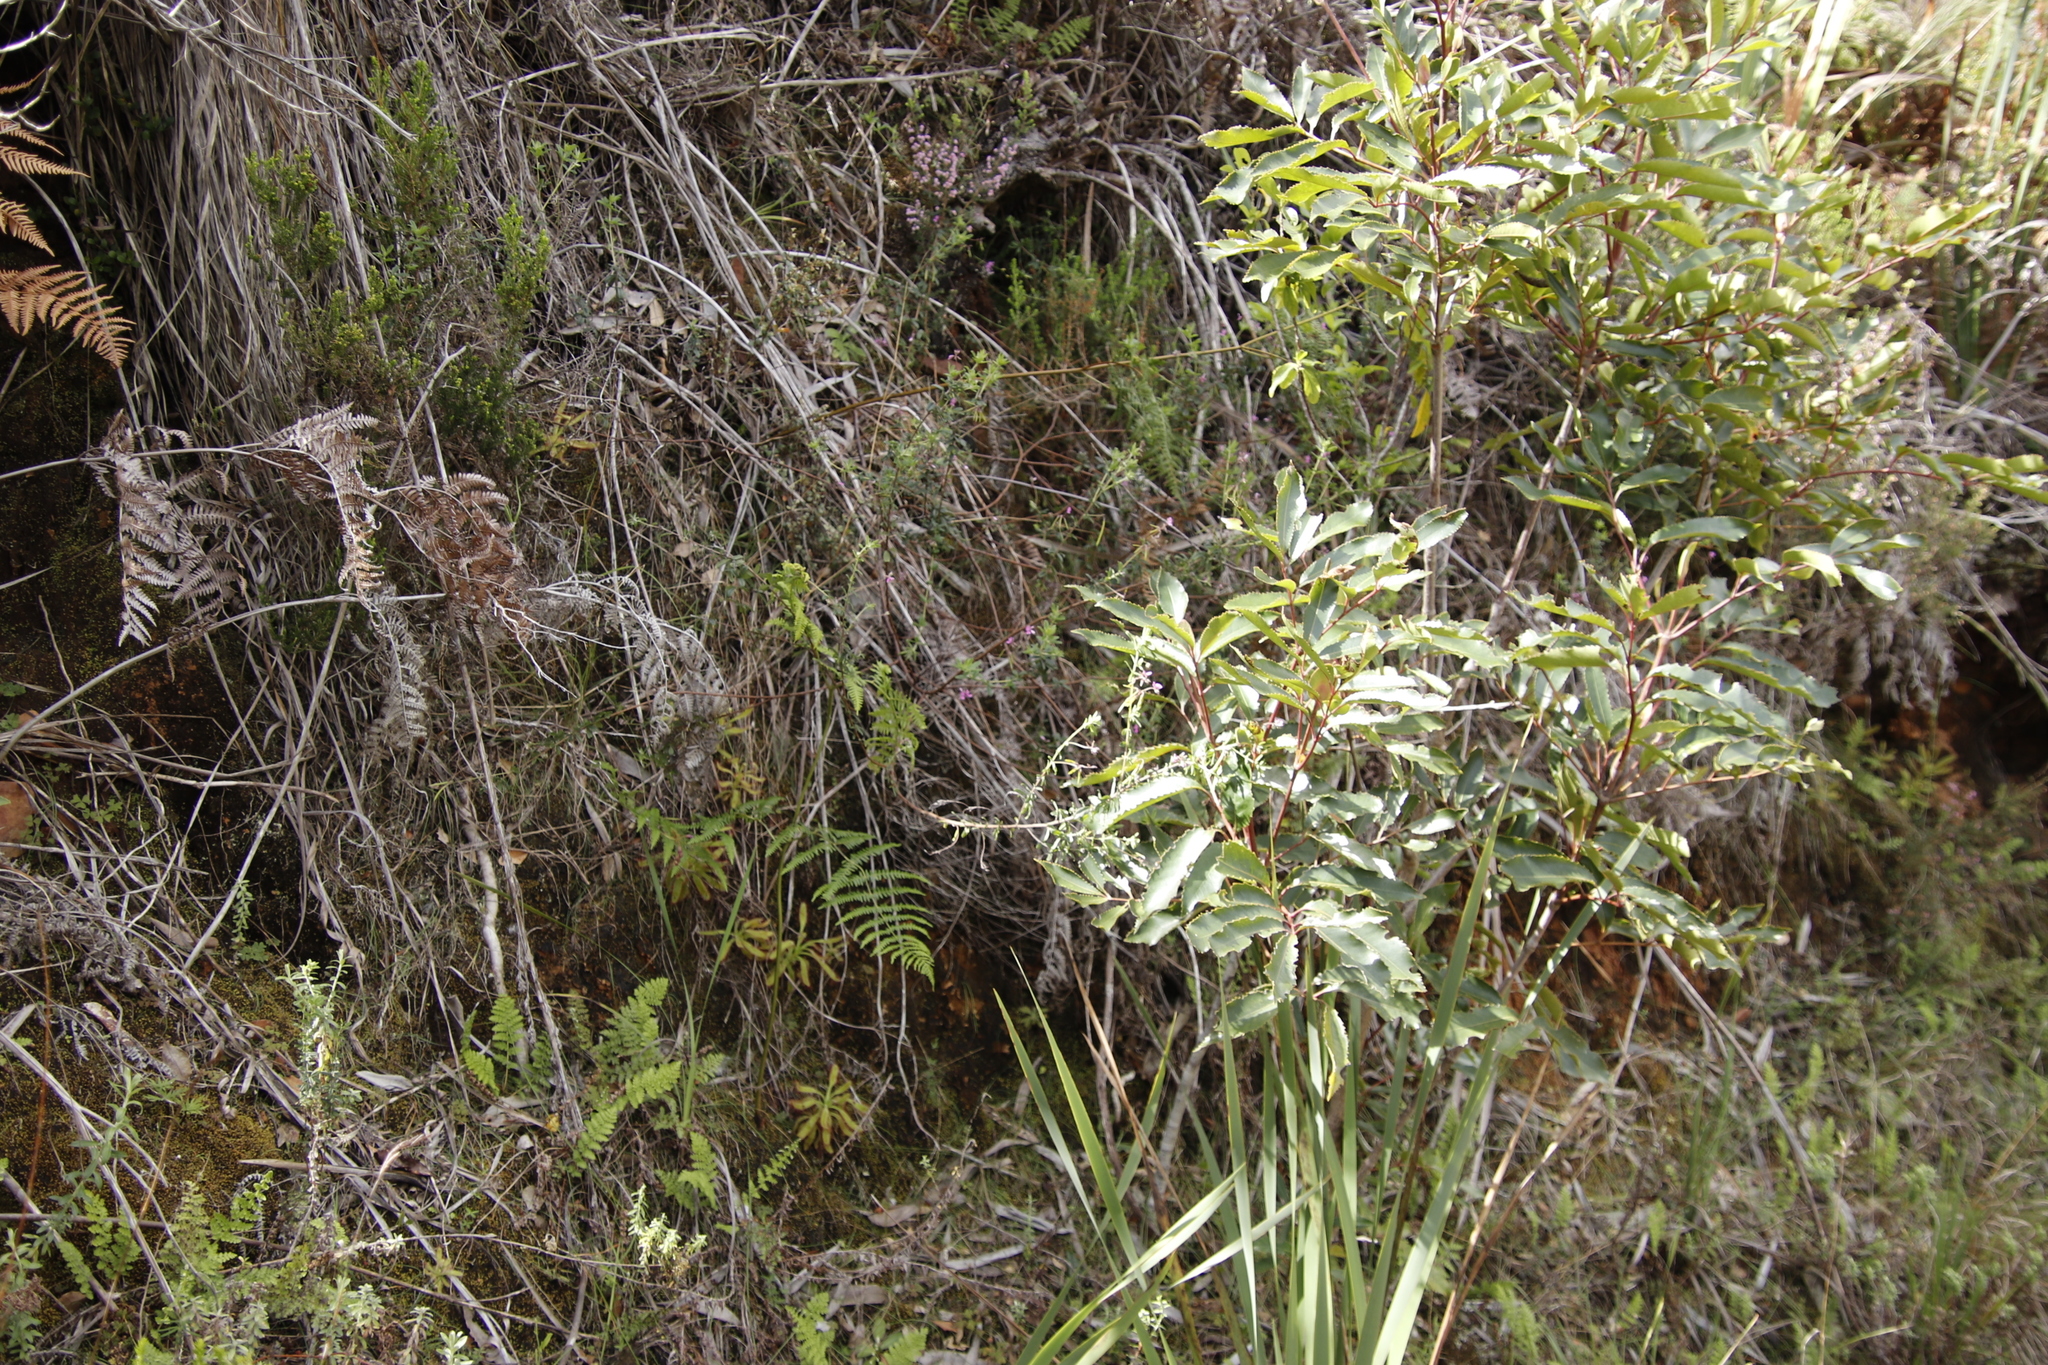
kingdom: Plantae
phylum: Tracheophyta
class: Magnoliopsida
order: Fabales
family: Fabaceae
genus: Indigofera
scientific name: Indigofera filiformis
